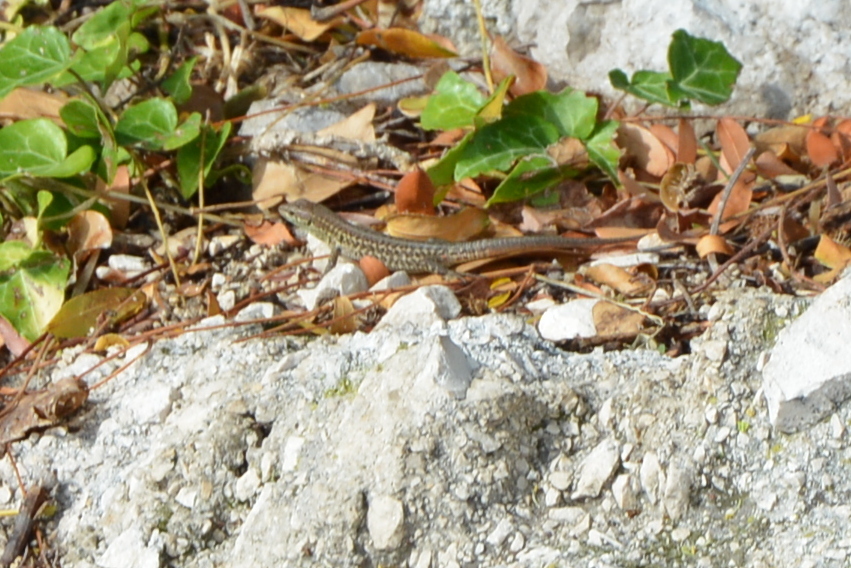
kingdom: Animalia
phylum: Chordata
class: Squamata
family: Lacertidae
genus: Podarcis
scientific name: Podarcis siculus
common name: Italian wall lizard
